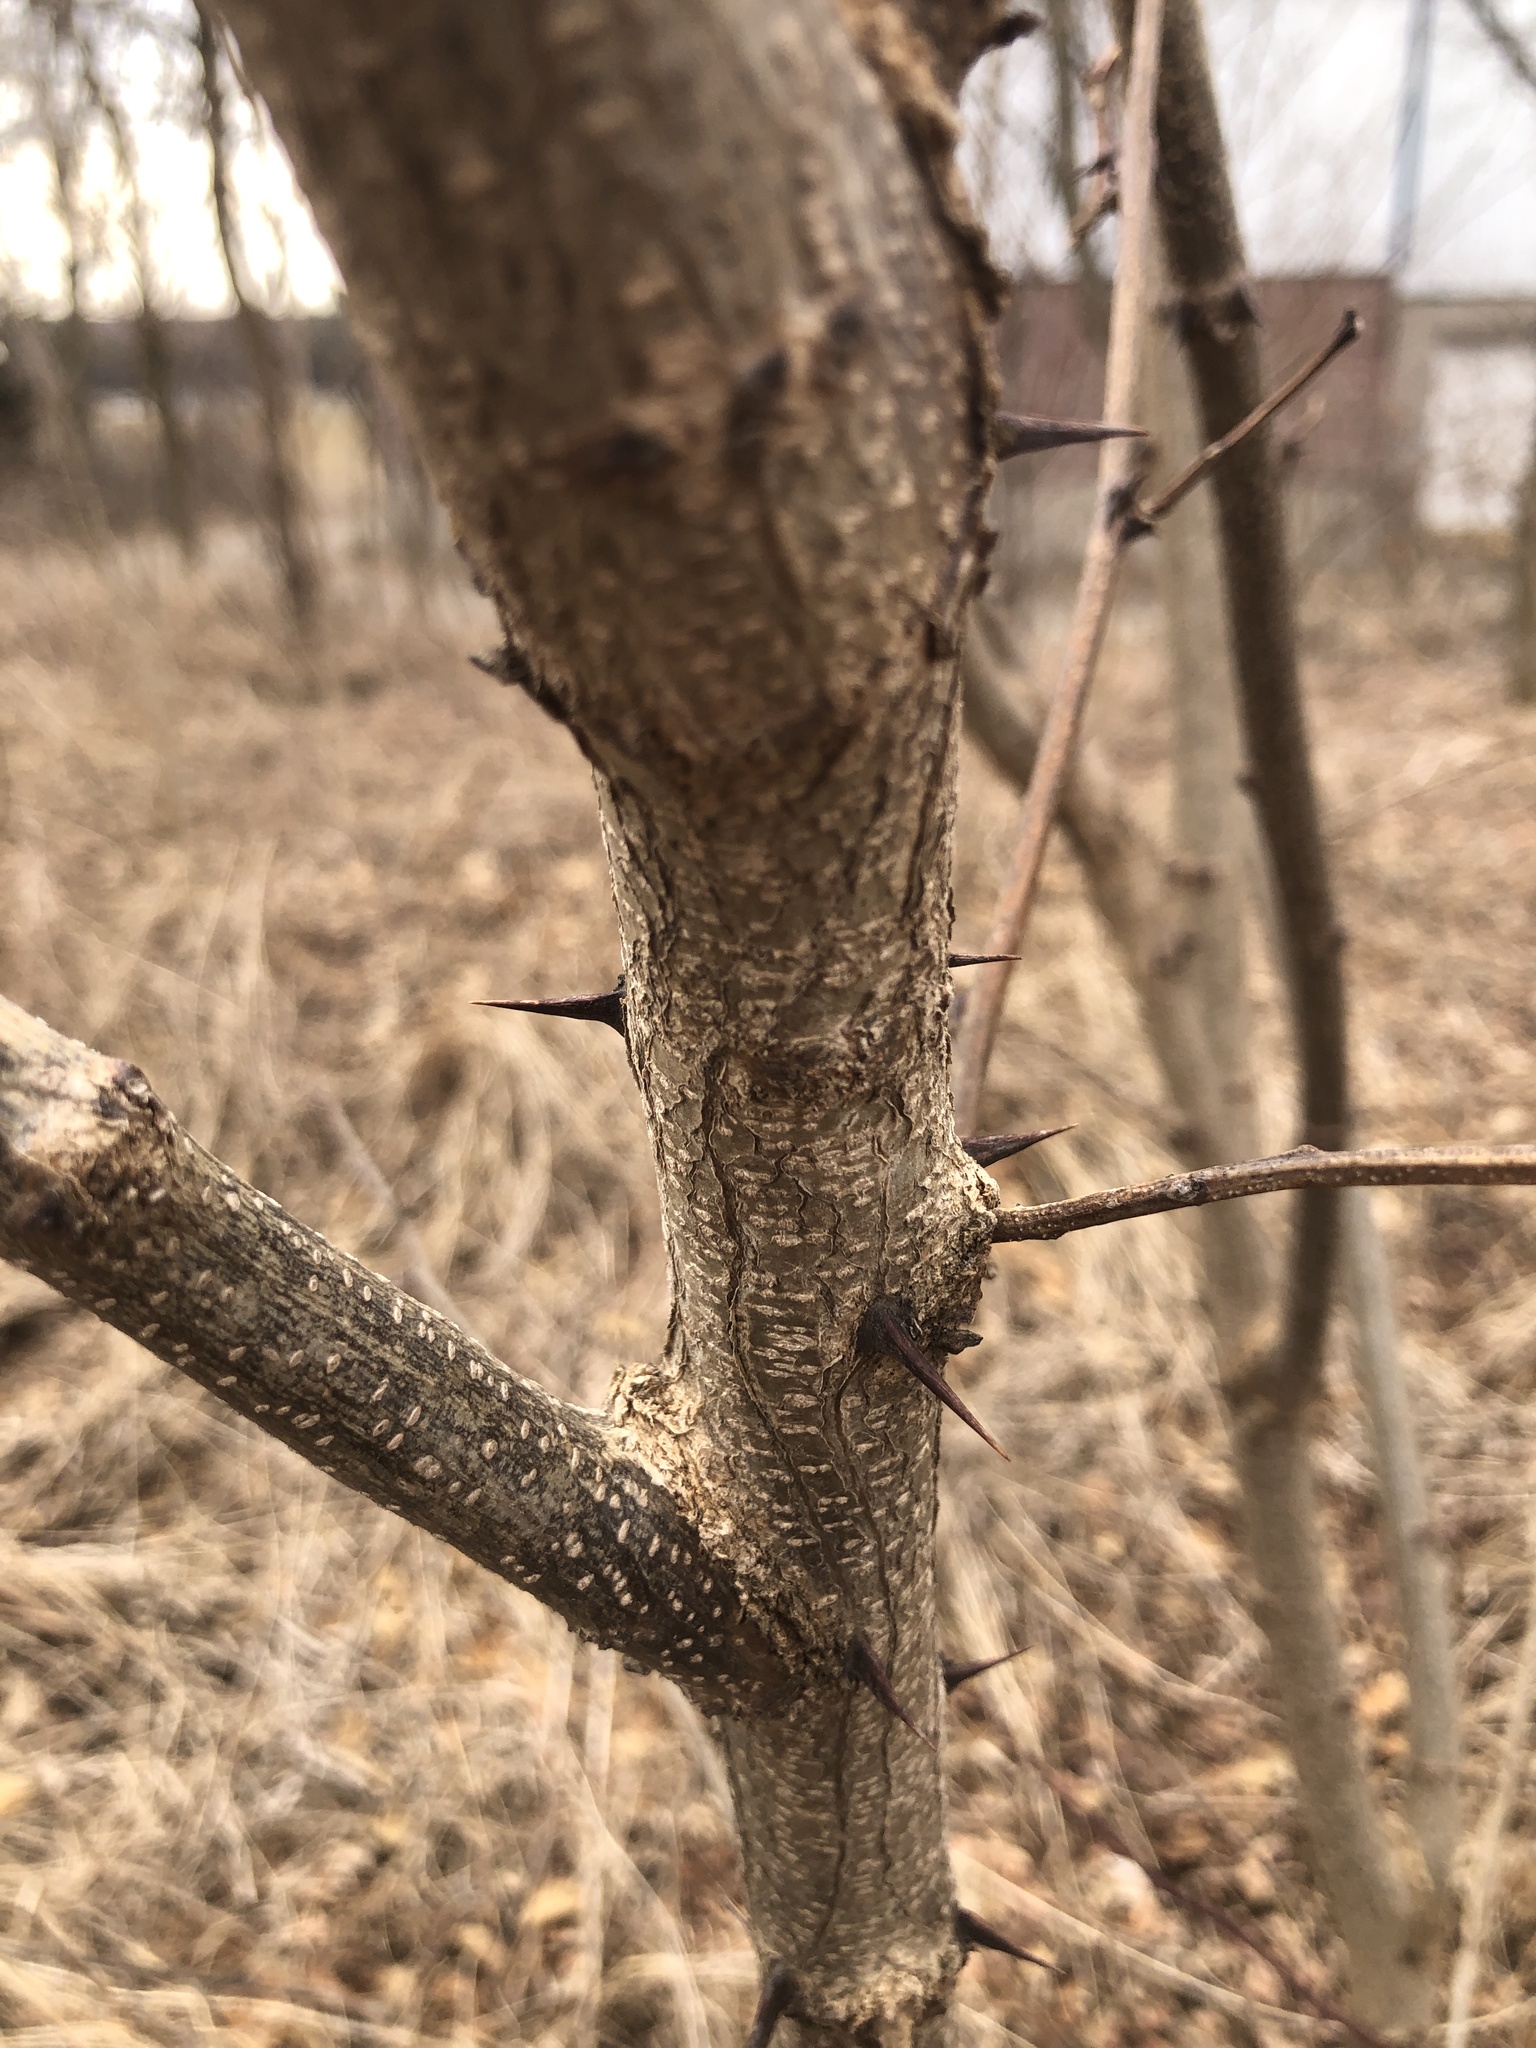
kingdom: Plantae
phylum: Tracheophyta
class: Magnoliopsida
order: Fabales
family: Fabaceae
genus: Robinia
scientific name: Robinia pseudoacacia
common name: Black locust
